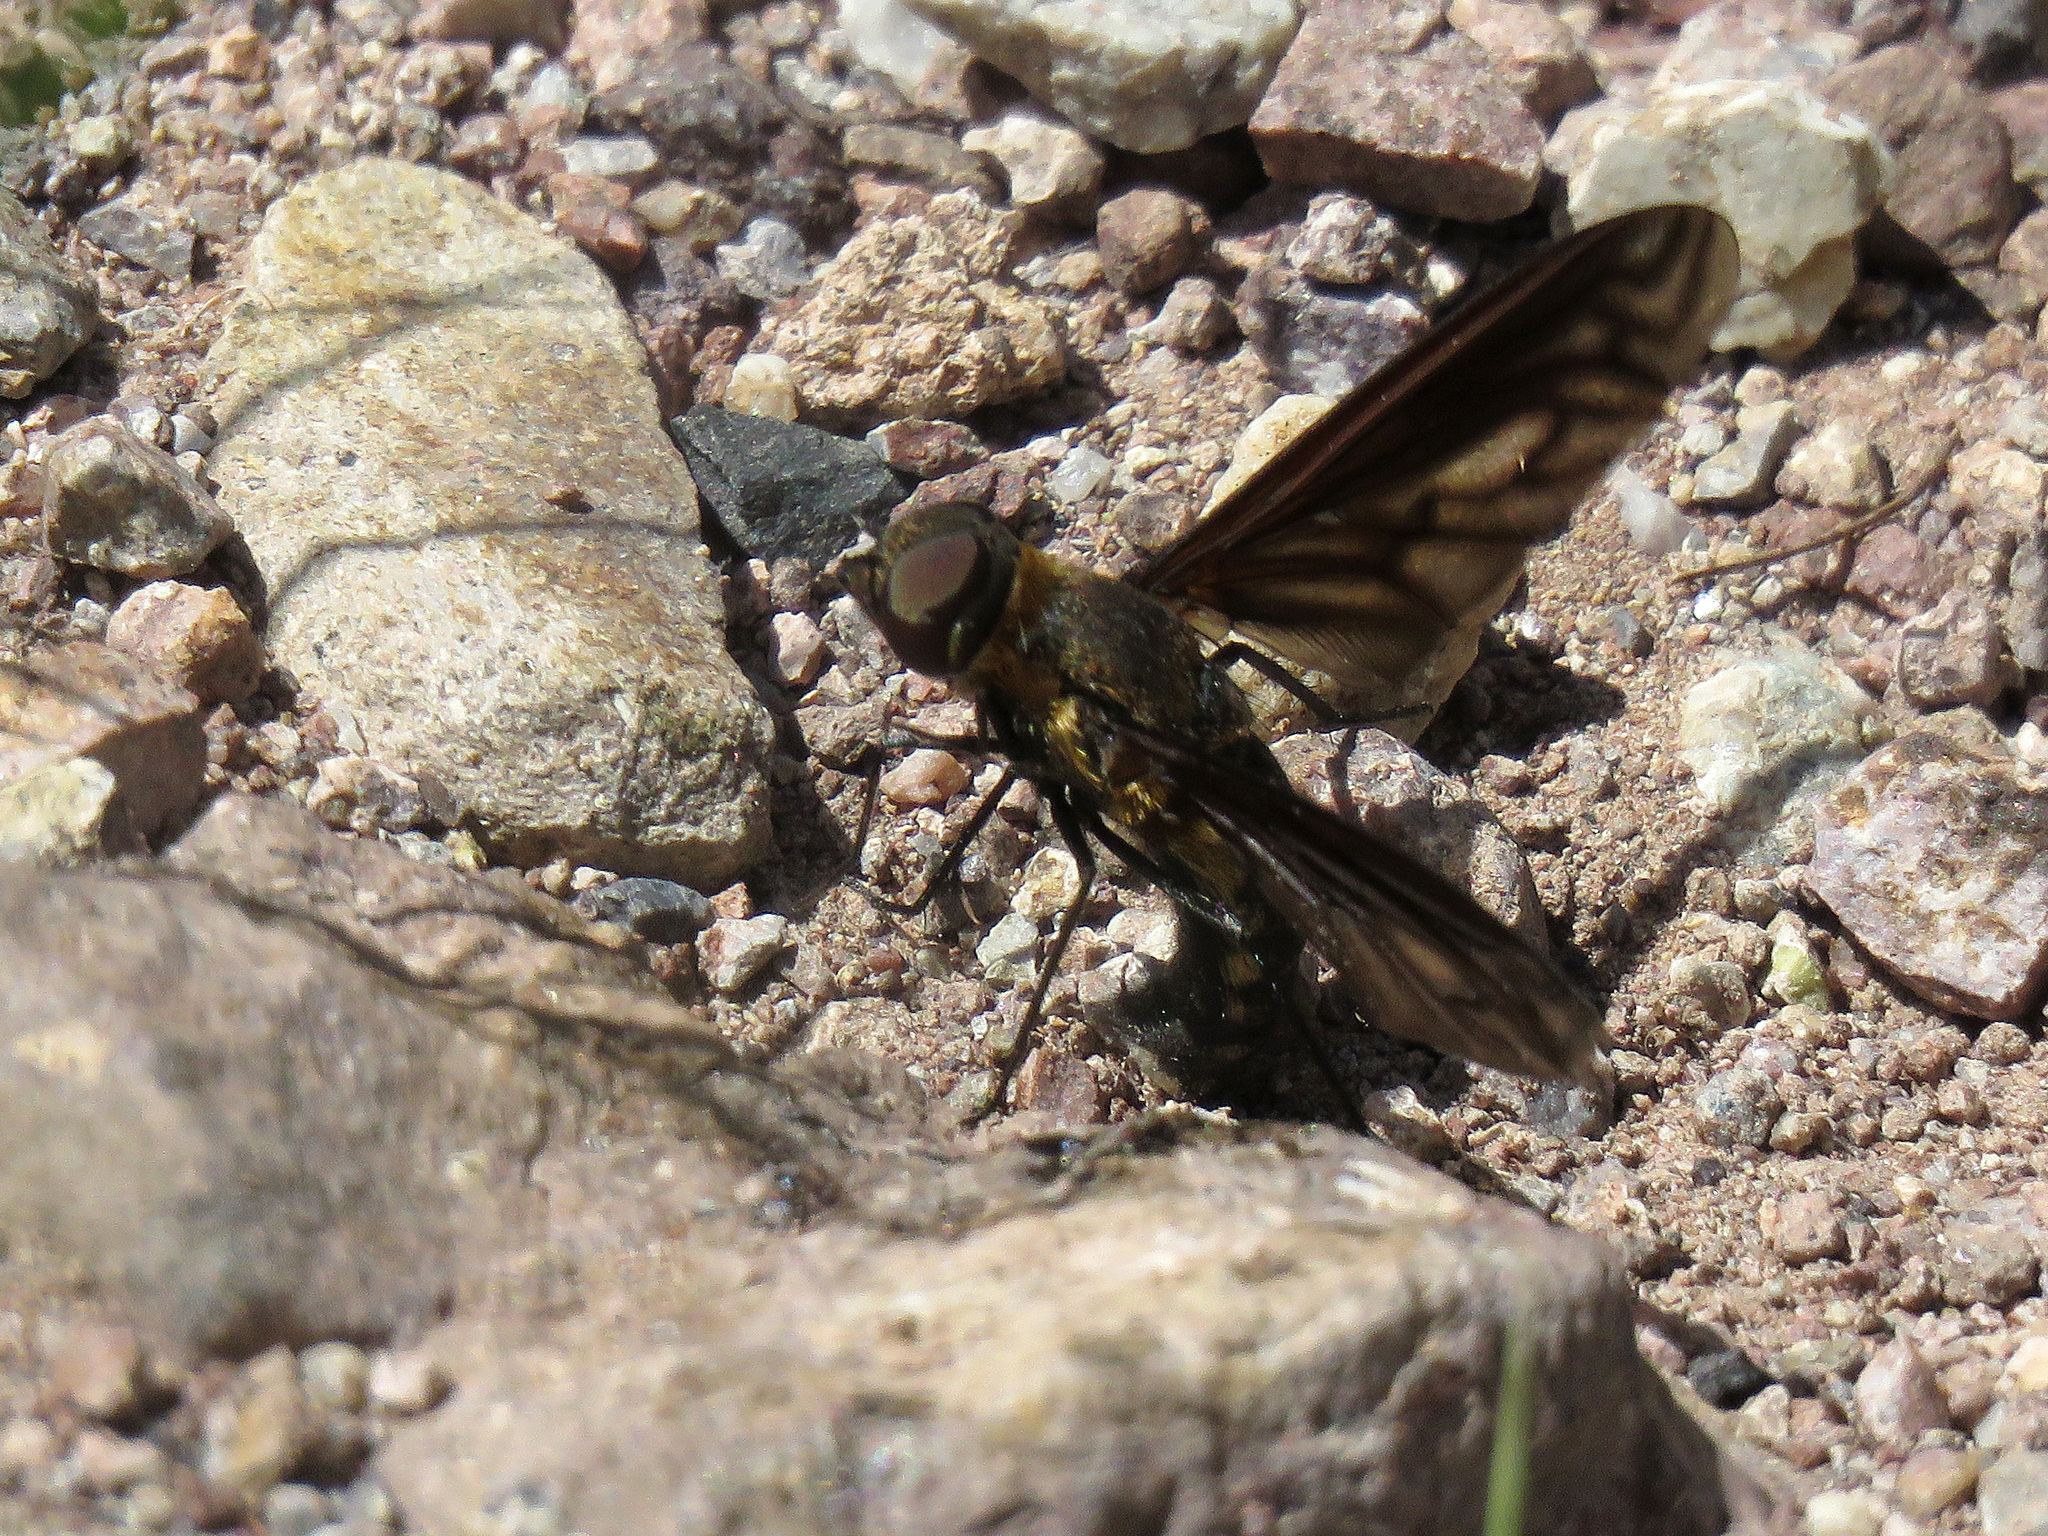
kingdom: Animalia
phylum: Arthropoda
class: Insecta
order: Diptera
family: Bombyliidae
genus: Exoprosopa
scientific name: Exoprosopa fumosa
